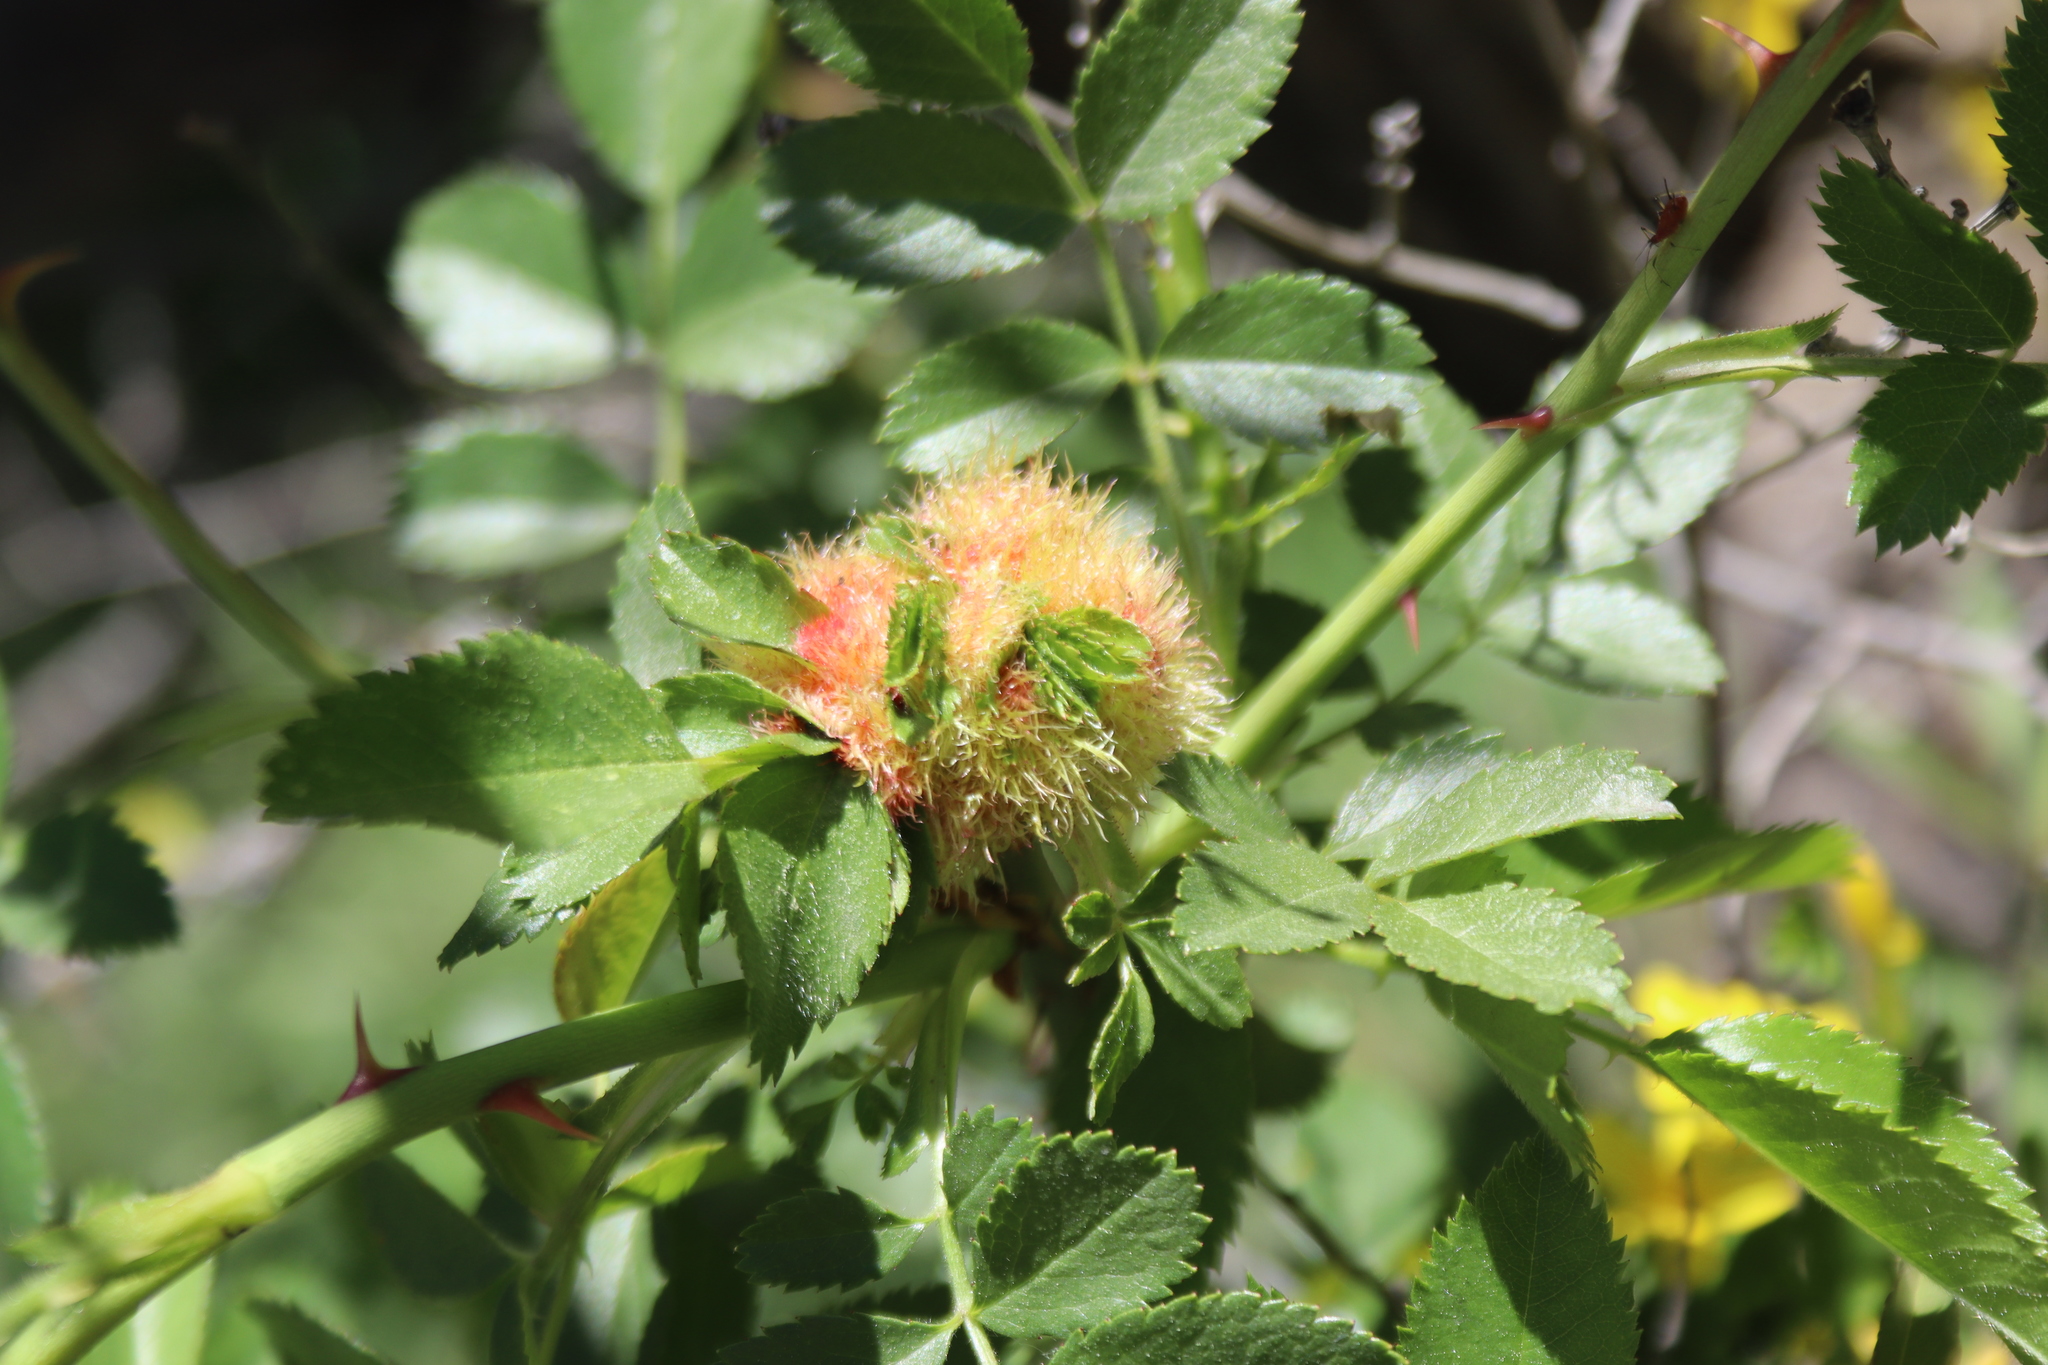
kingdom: Animalia
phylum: Arthropoda
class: Insecta
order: Hymenoptera
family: Cynipidae
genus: Diplolepis
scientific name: Diplolepis rosae
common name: Bedeguar gall
